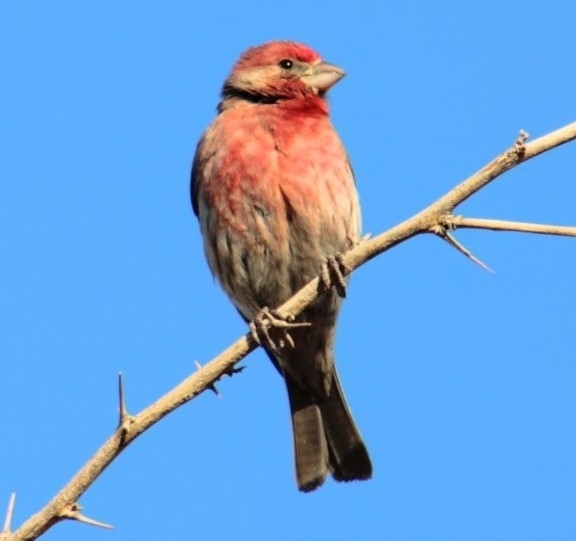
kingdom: Animalia
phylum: Chordata
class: Aves
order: Passeriformes
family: Fringillidae
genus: Haemorhous
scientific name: Haemorhous mexicanus
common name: House finch
